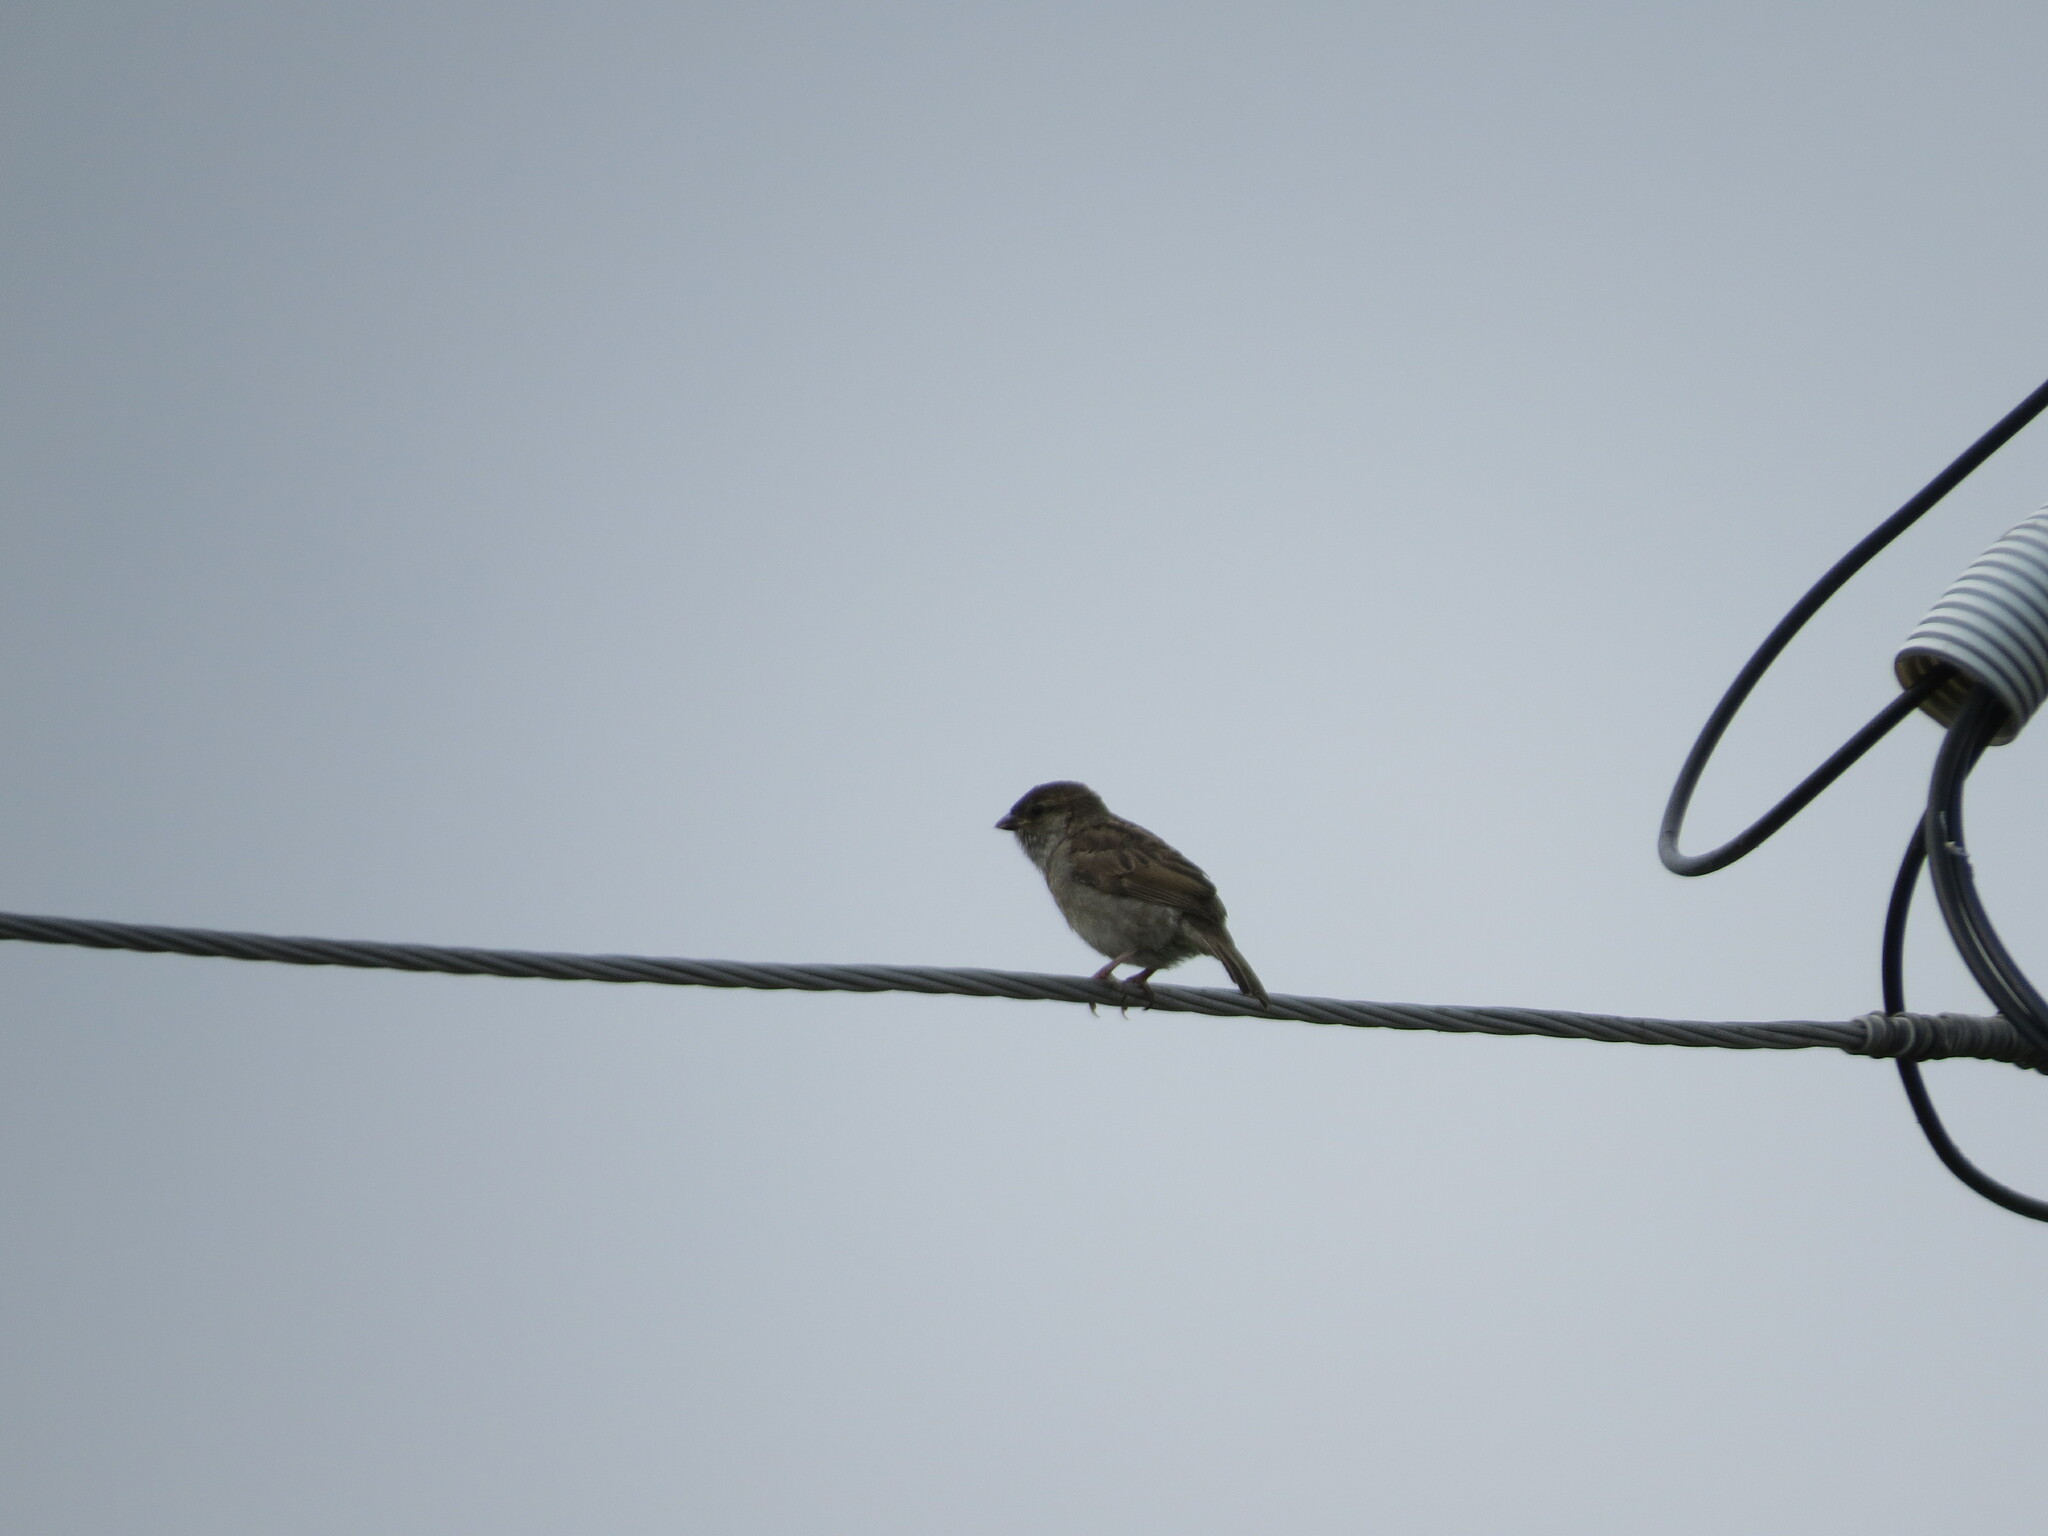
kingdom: Animalia
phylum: Chordata
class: Aves
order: Passeriformes
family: Passeridae
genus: Passer
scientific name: Passer domesticus
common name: House sparrow
